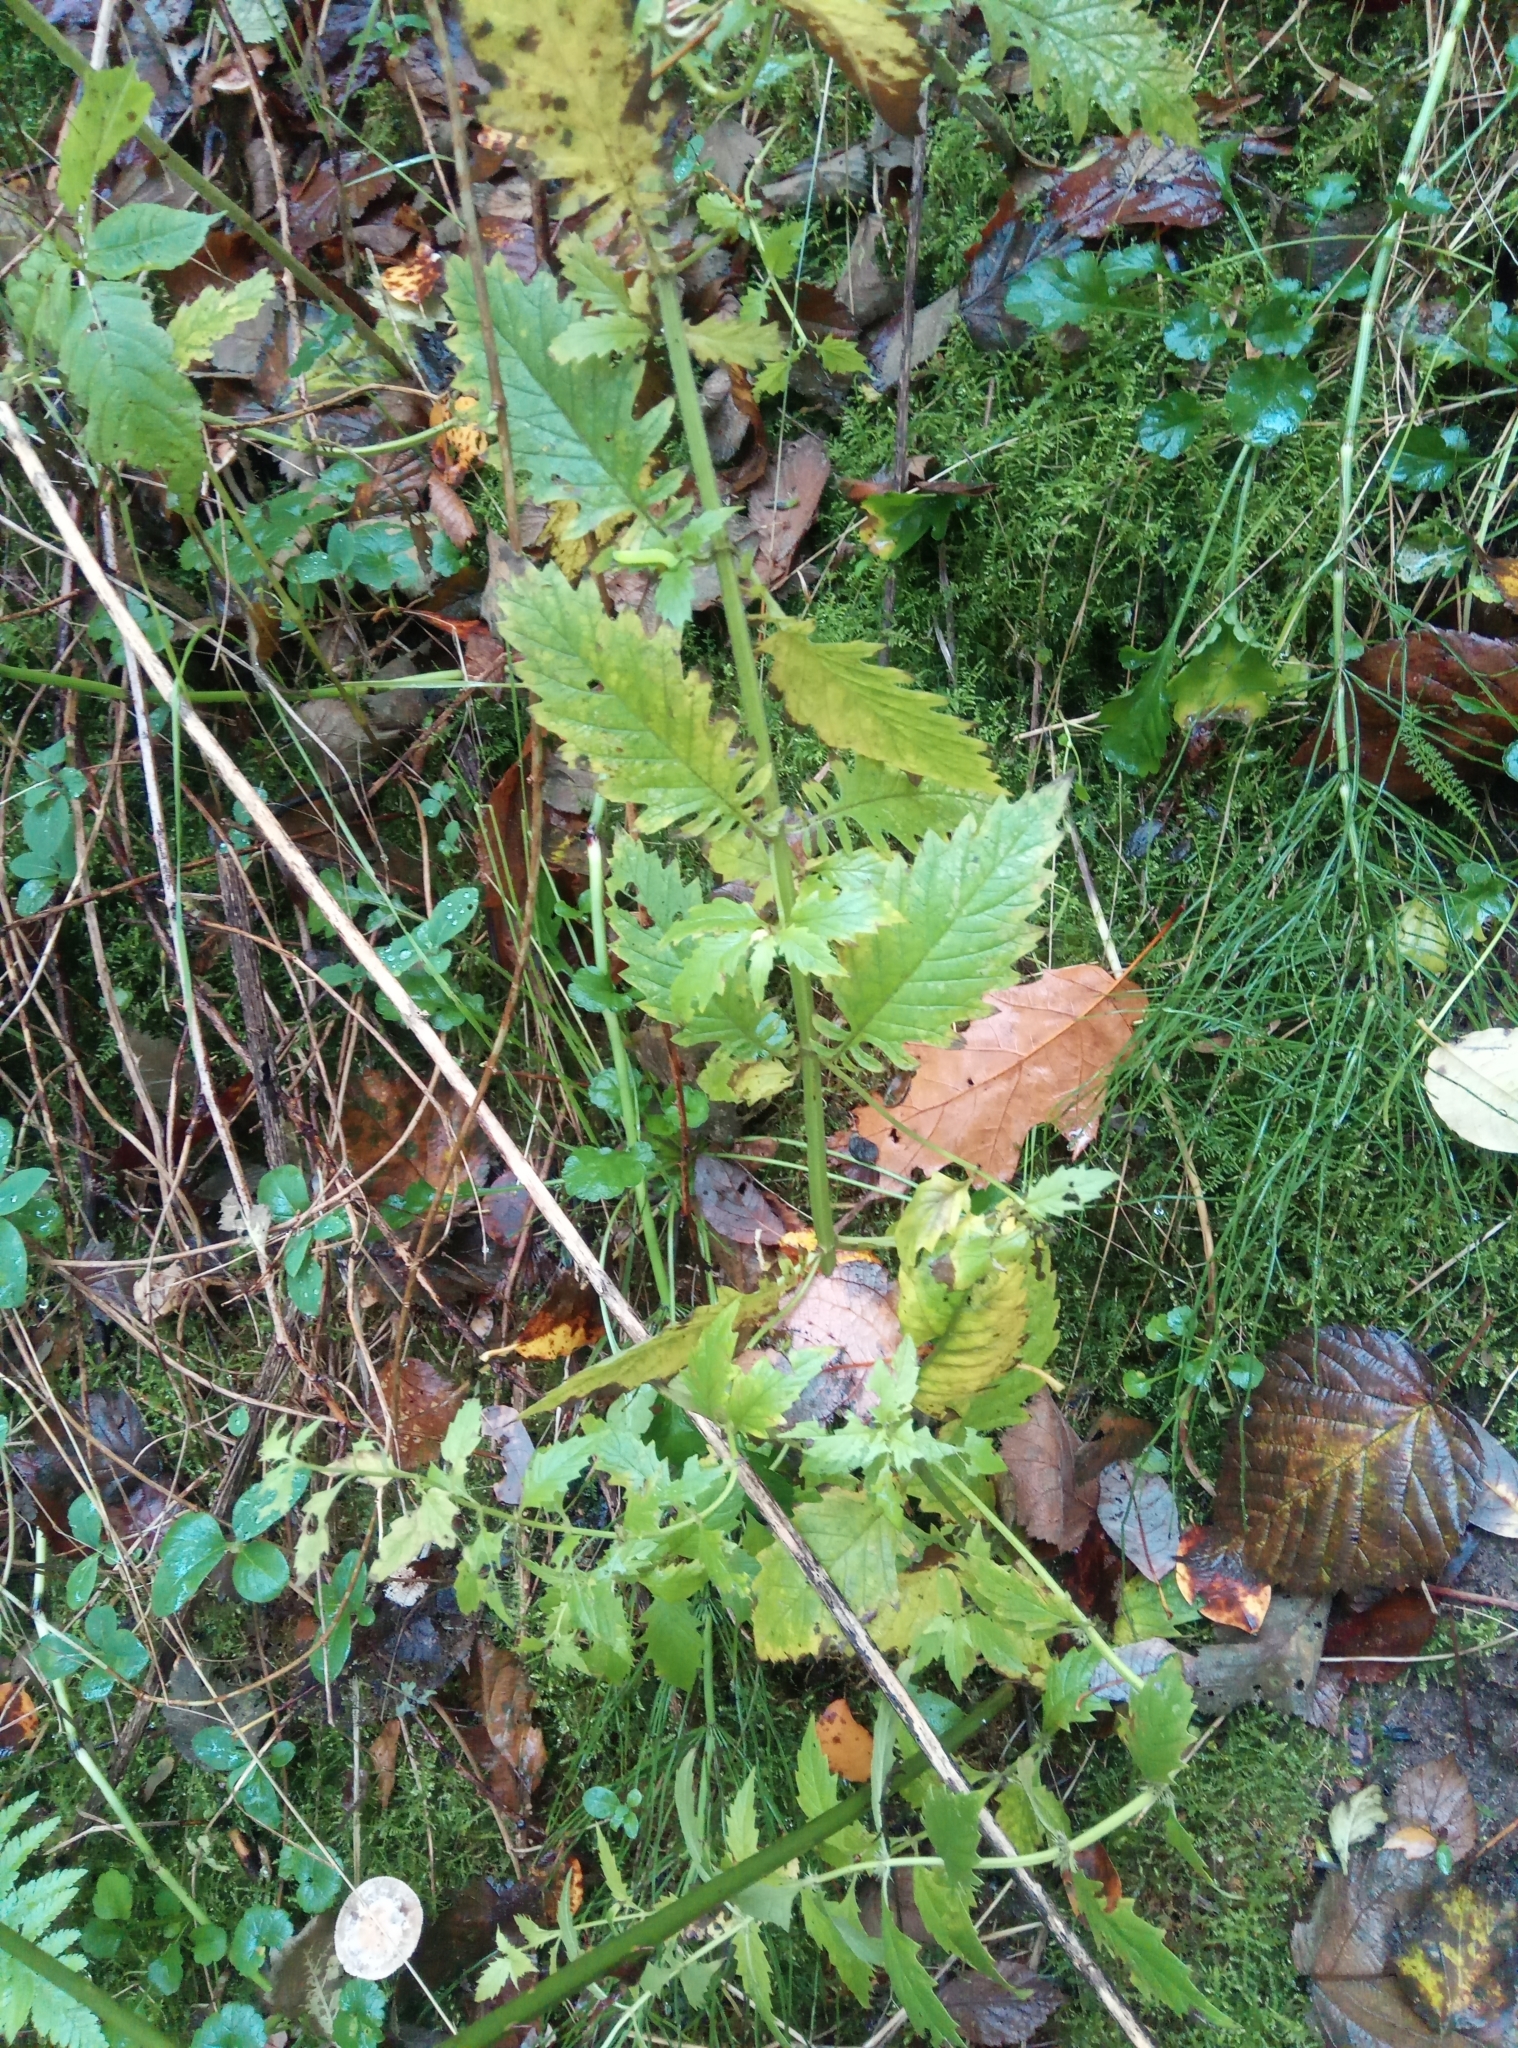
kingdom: Plantae
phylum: Tracheophyta
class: Magnoliopsida
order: Lamiales
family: Lamiaceae
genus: Lycopus
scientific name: Lycopus europaeus
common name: European bugleweed
